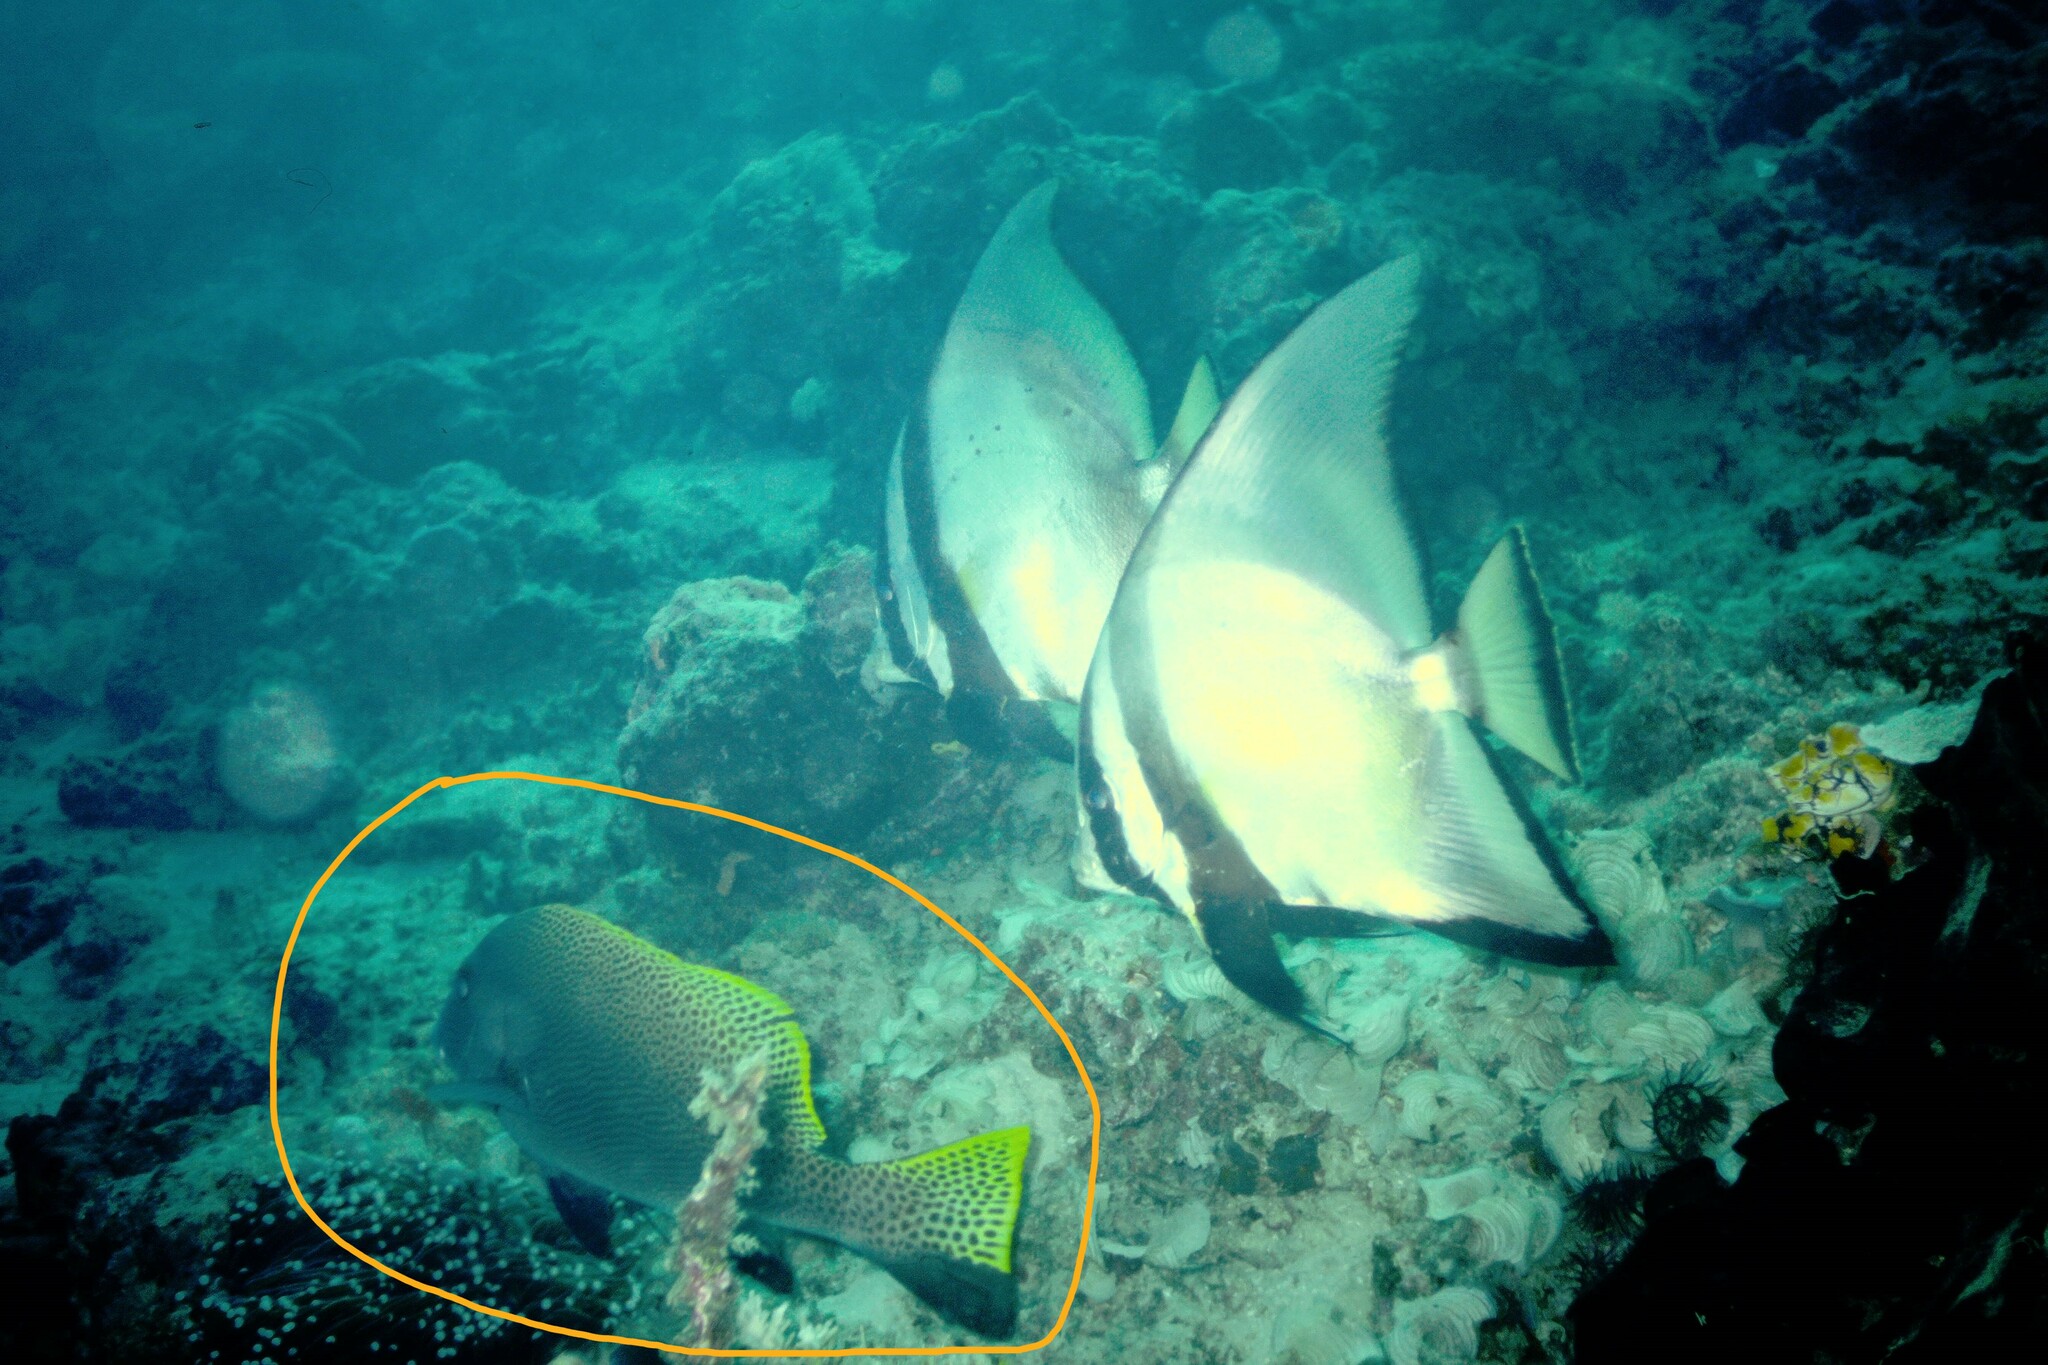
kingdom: Animalia
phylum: Chordata
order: Perciformes
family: Haemulidae
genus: Diagramma
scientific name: Diagramma melanacrum
